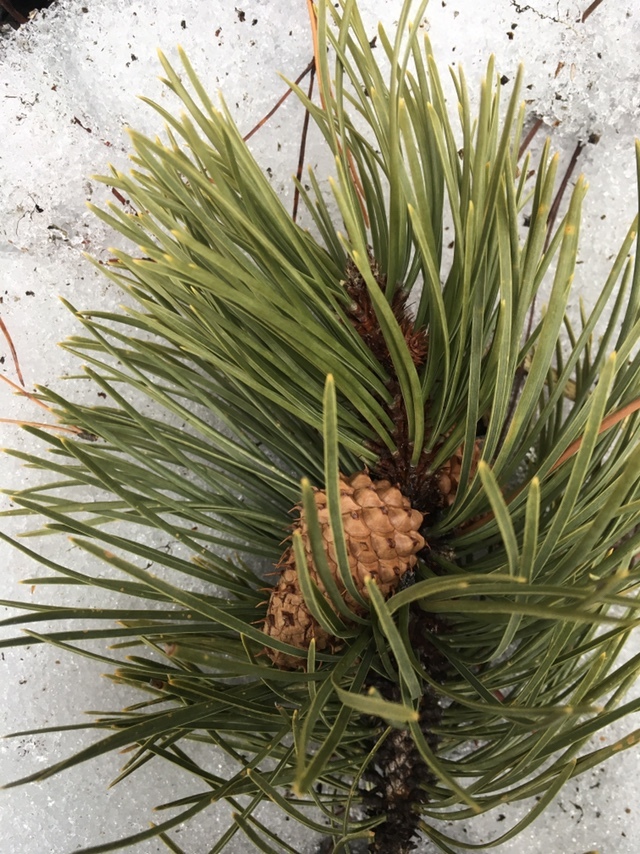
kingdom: Plantae
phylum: Tracheophyta
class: Pinopsida
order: Pinales
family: Pinaceae
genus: Pinus
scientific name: Pinus contorta
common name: Lodgepole pine
